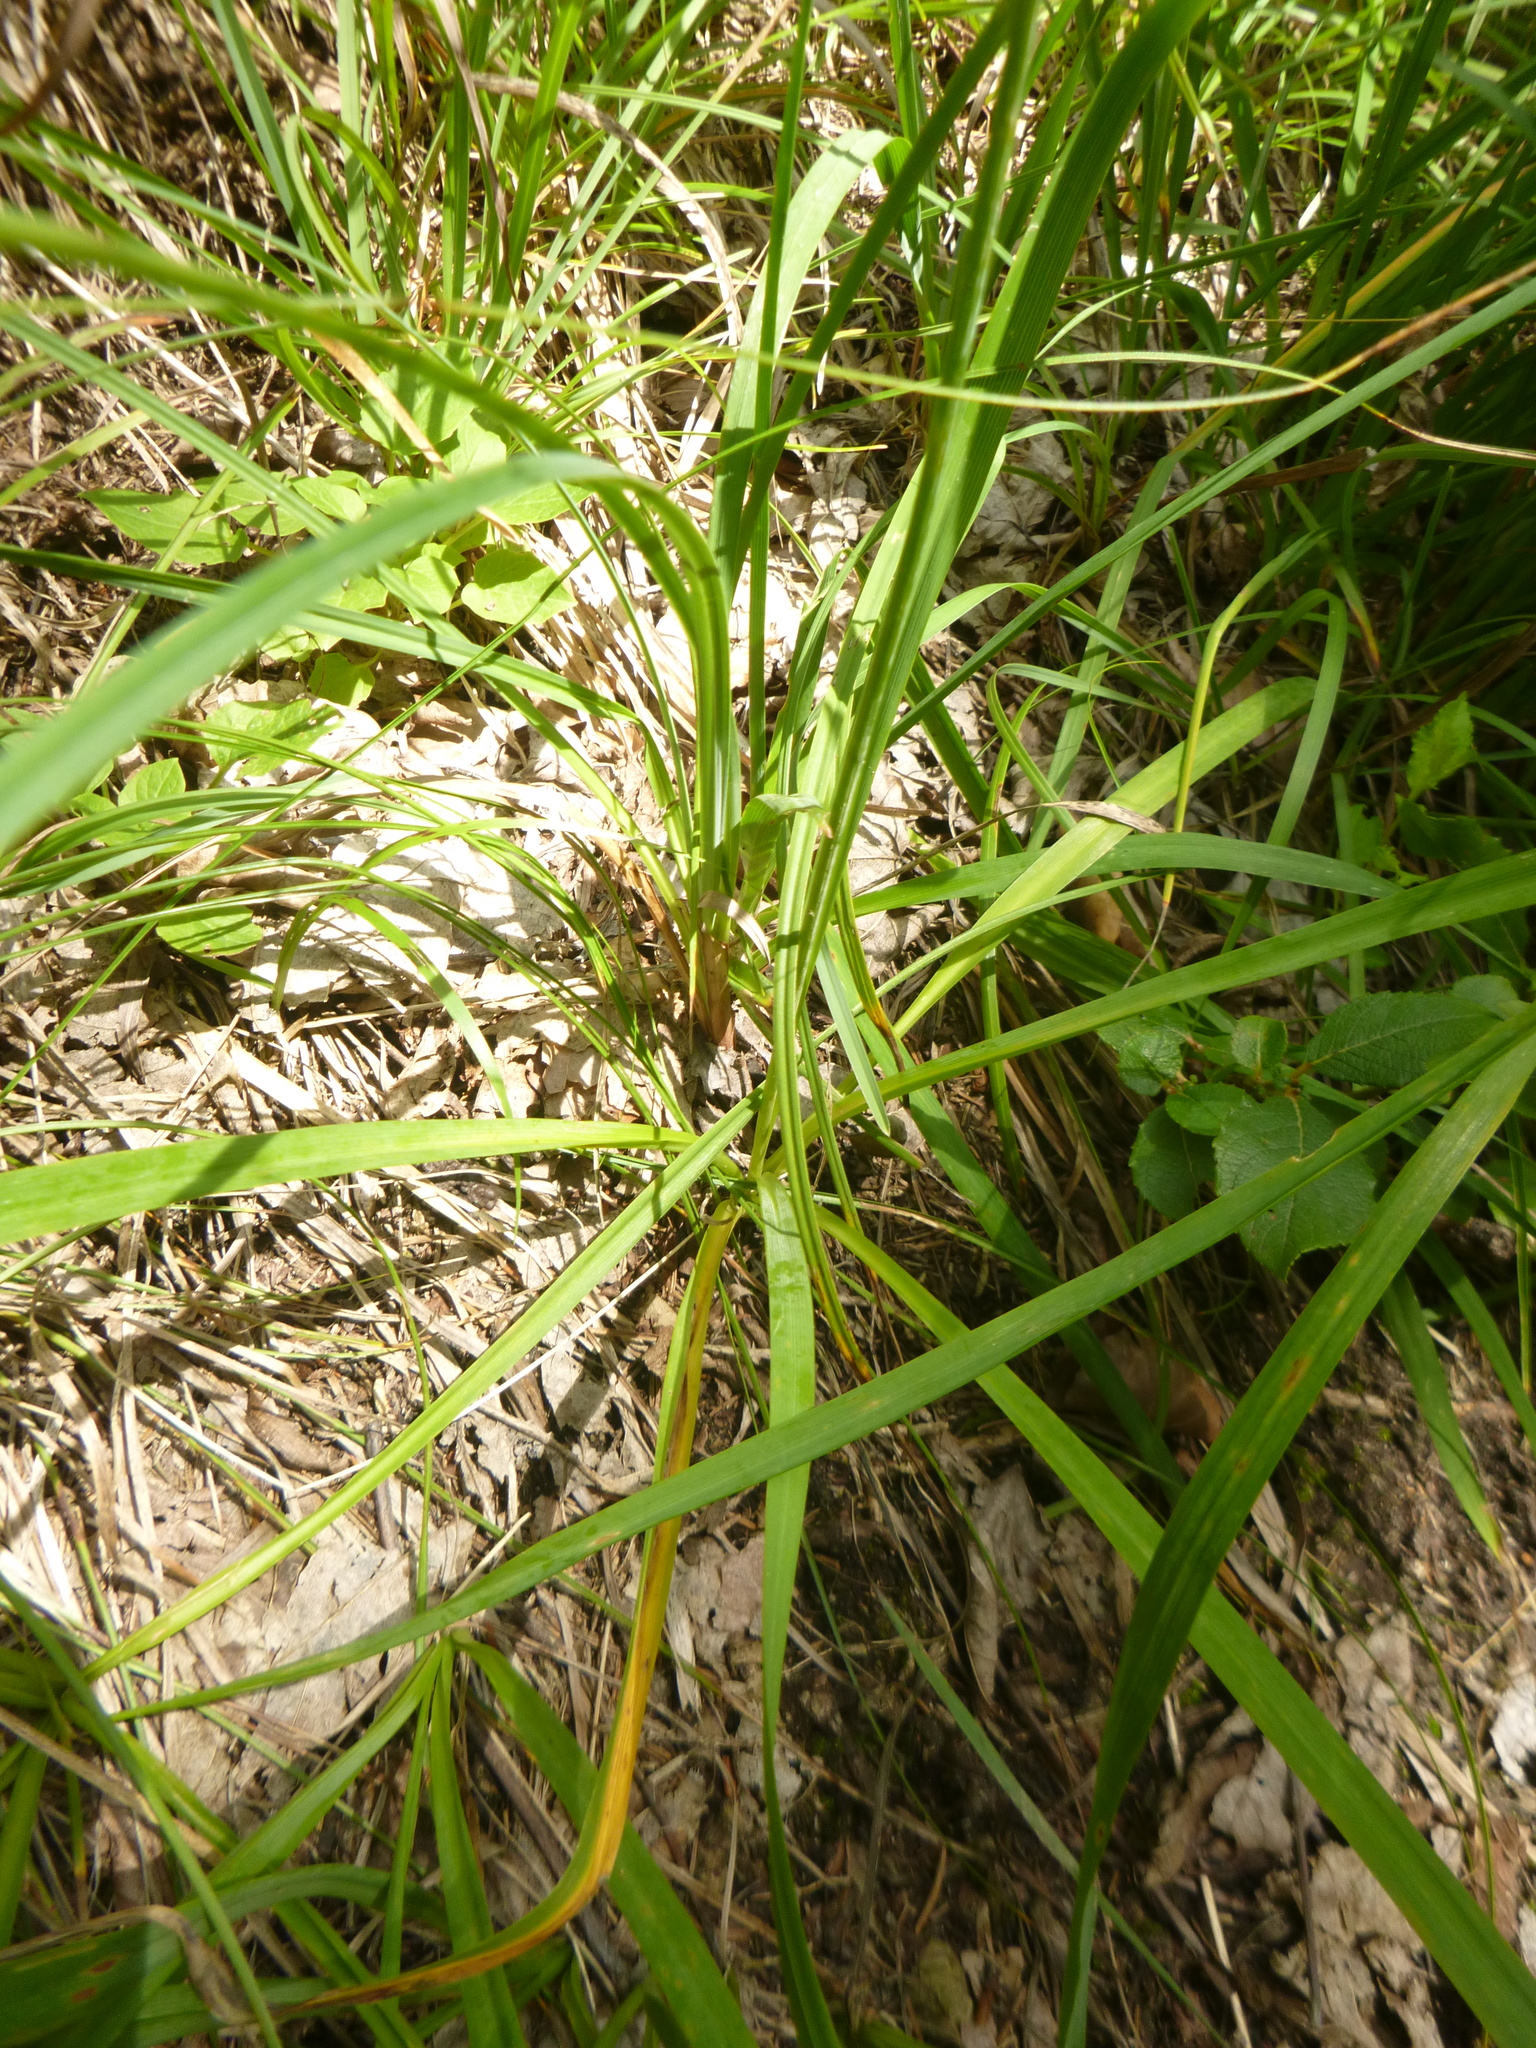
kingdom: Plantae
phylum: Tracheophyta
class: Liliopsida
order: Asparagales
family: Asparagaceae
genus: Anthericum
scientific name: Anthericum ramosum
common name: Branched st. bernard's-lily
